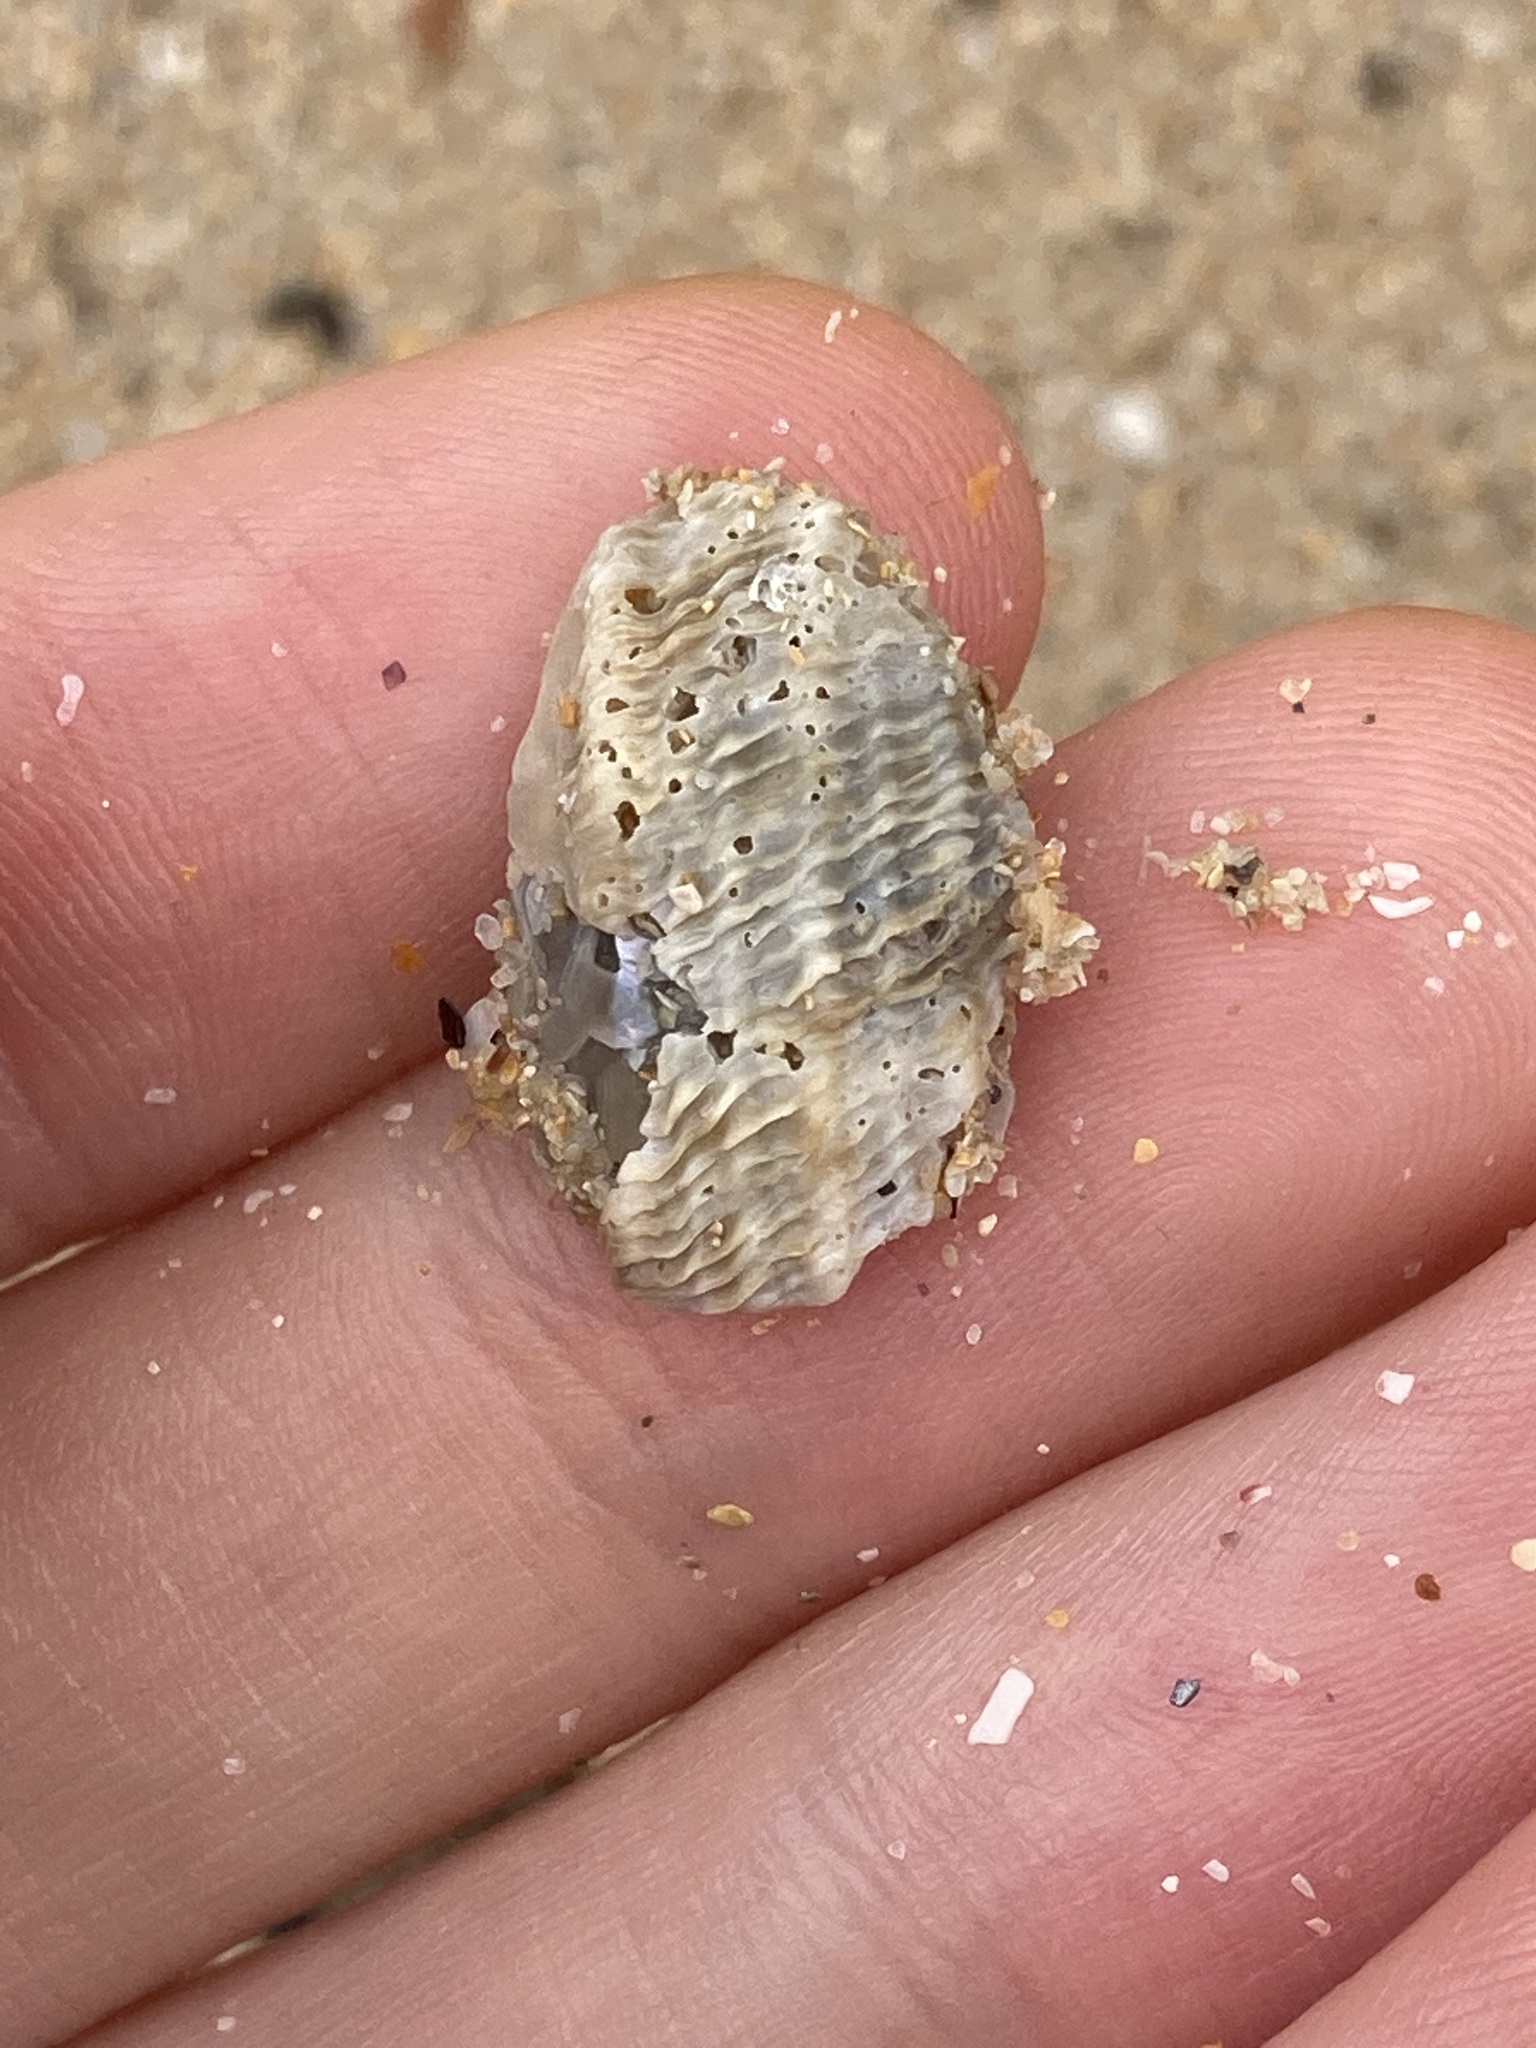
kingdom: Animalia
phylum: Mollusca
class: Gastropoda
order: Trochida
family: Turbinidae
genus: Lunella
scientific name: Lunella torquata
